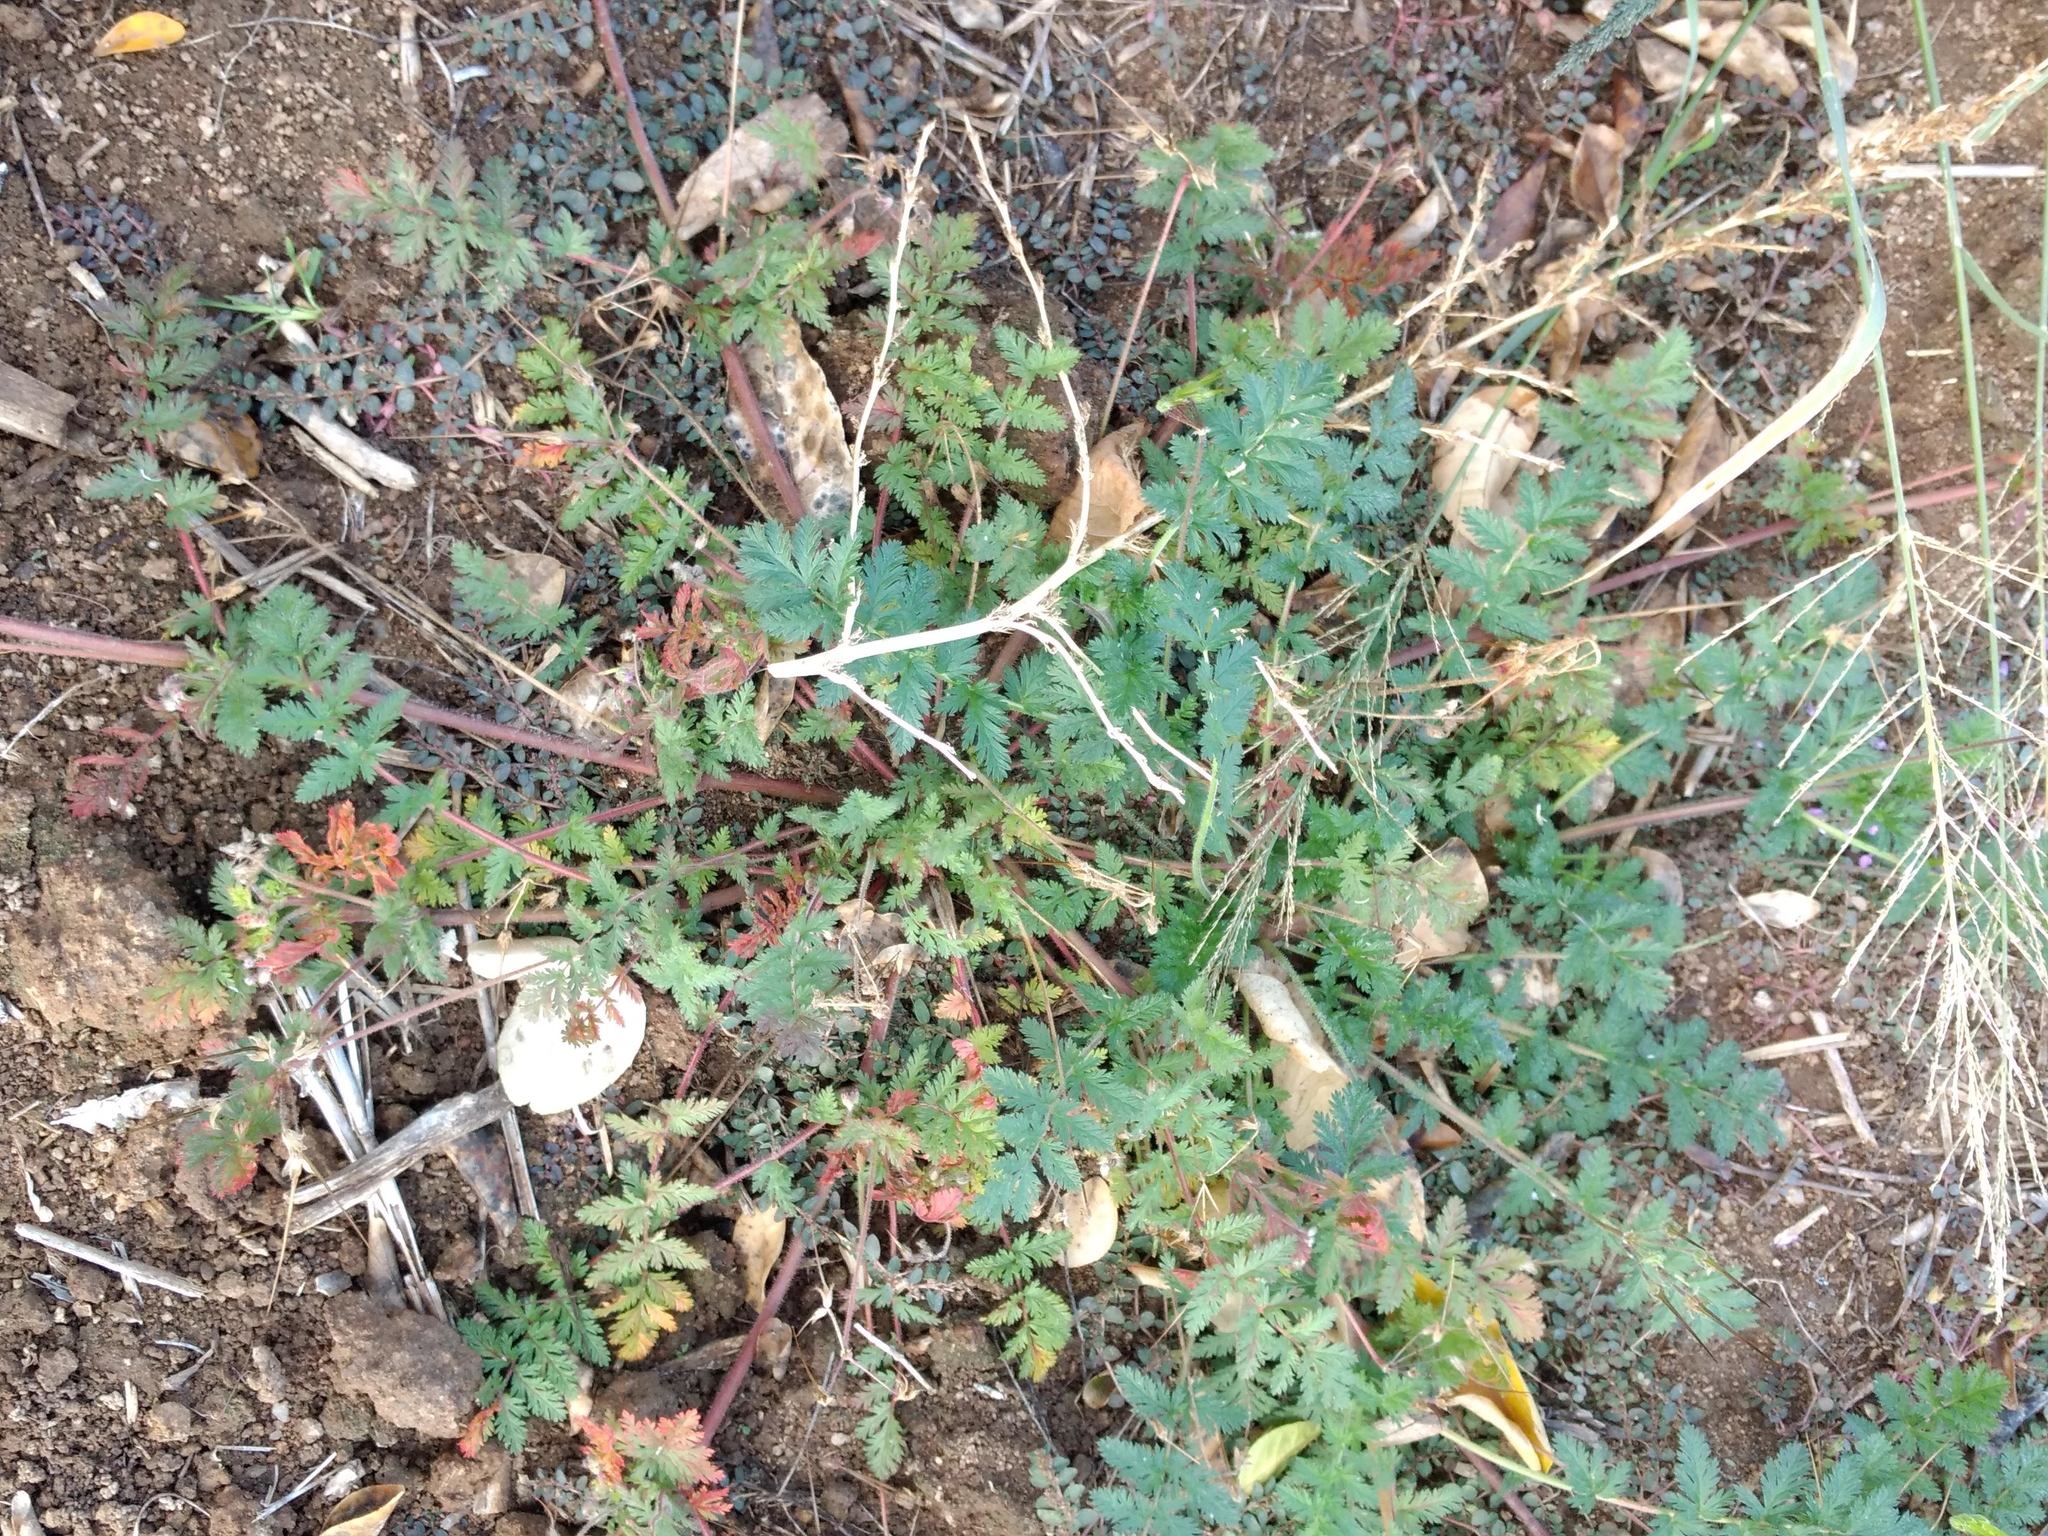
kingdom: Plantae
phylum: Tracheophyta
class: Magnoliopsida
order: Geraniales
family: Geraniaceae
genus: Erodium
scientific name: Erodium cicutarium
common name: Common stork's-bill
